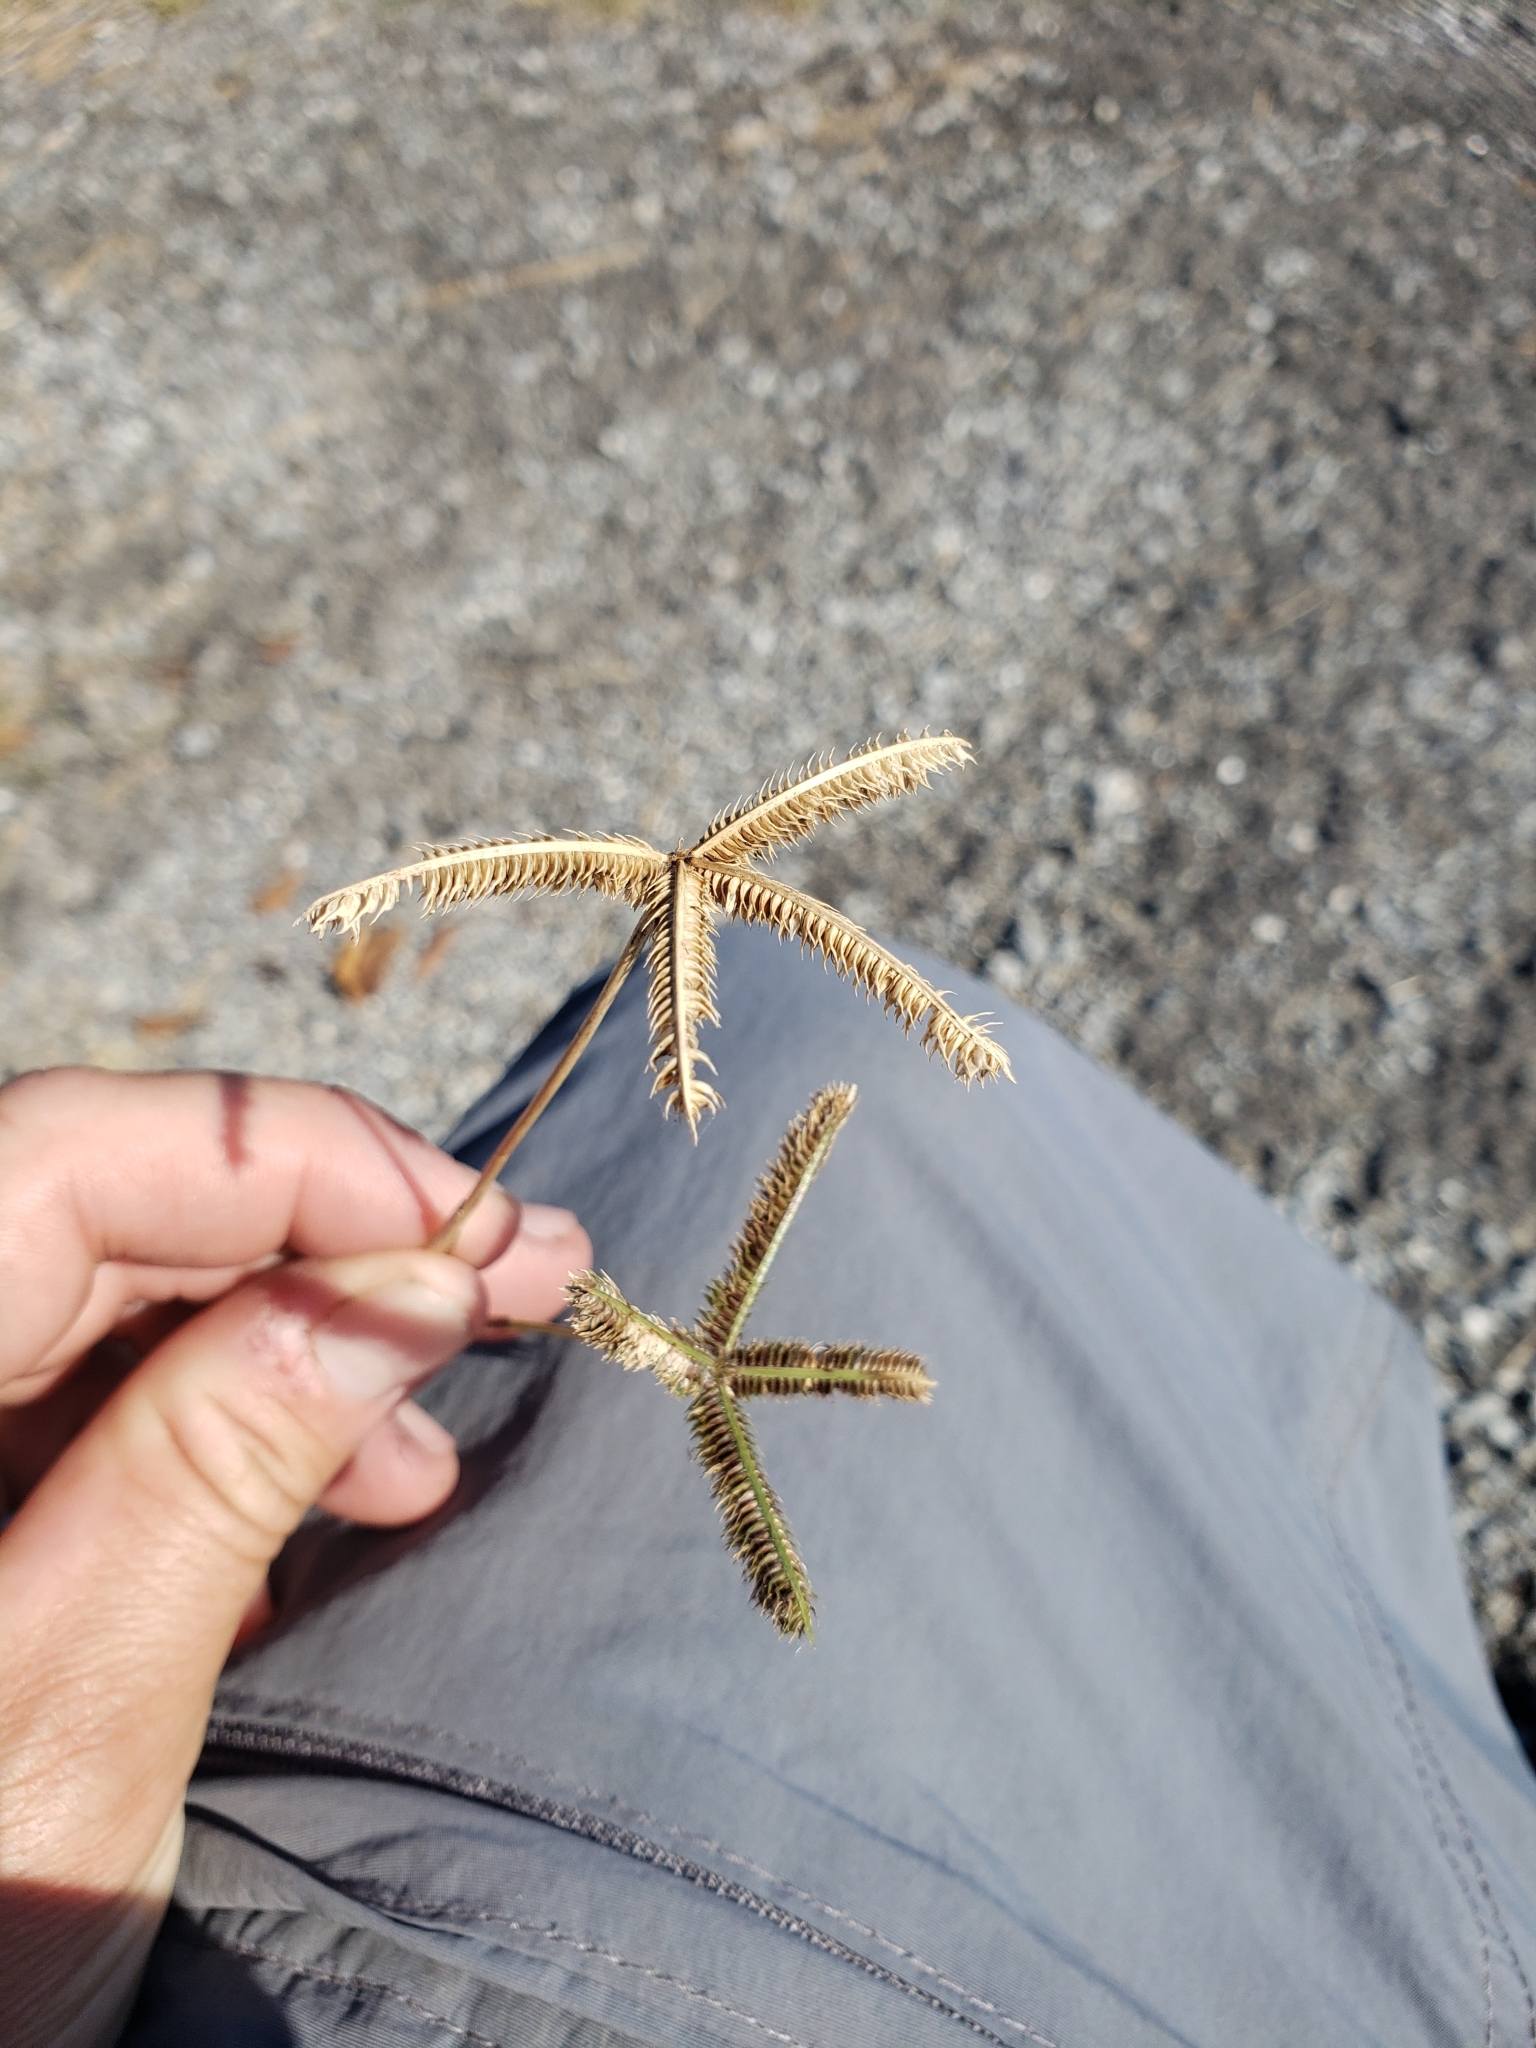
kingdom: Plantae
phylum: Tracheophyta
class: Liliopsida
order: Poales
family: Poaceae
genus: Dactyloctenium
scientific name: Dactyloctenium aegyptium
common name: Egyptian grass
